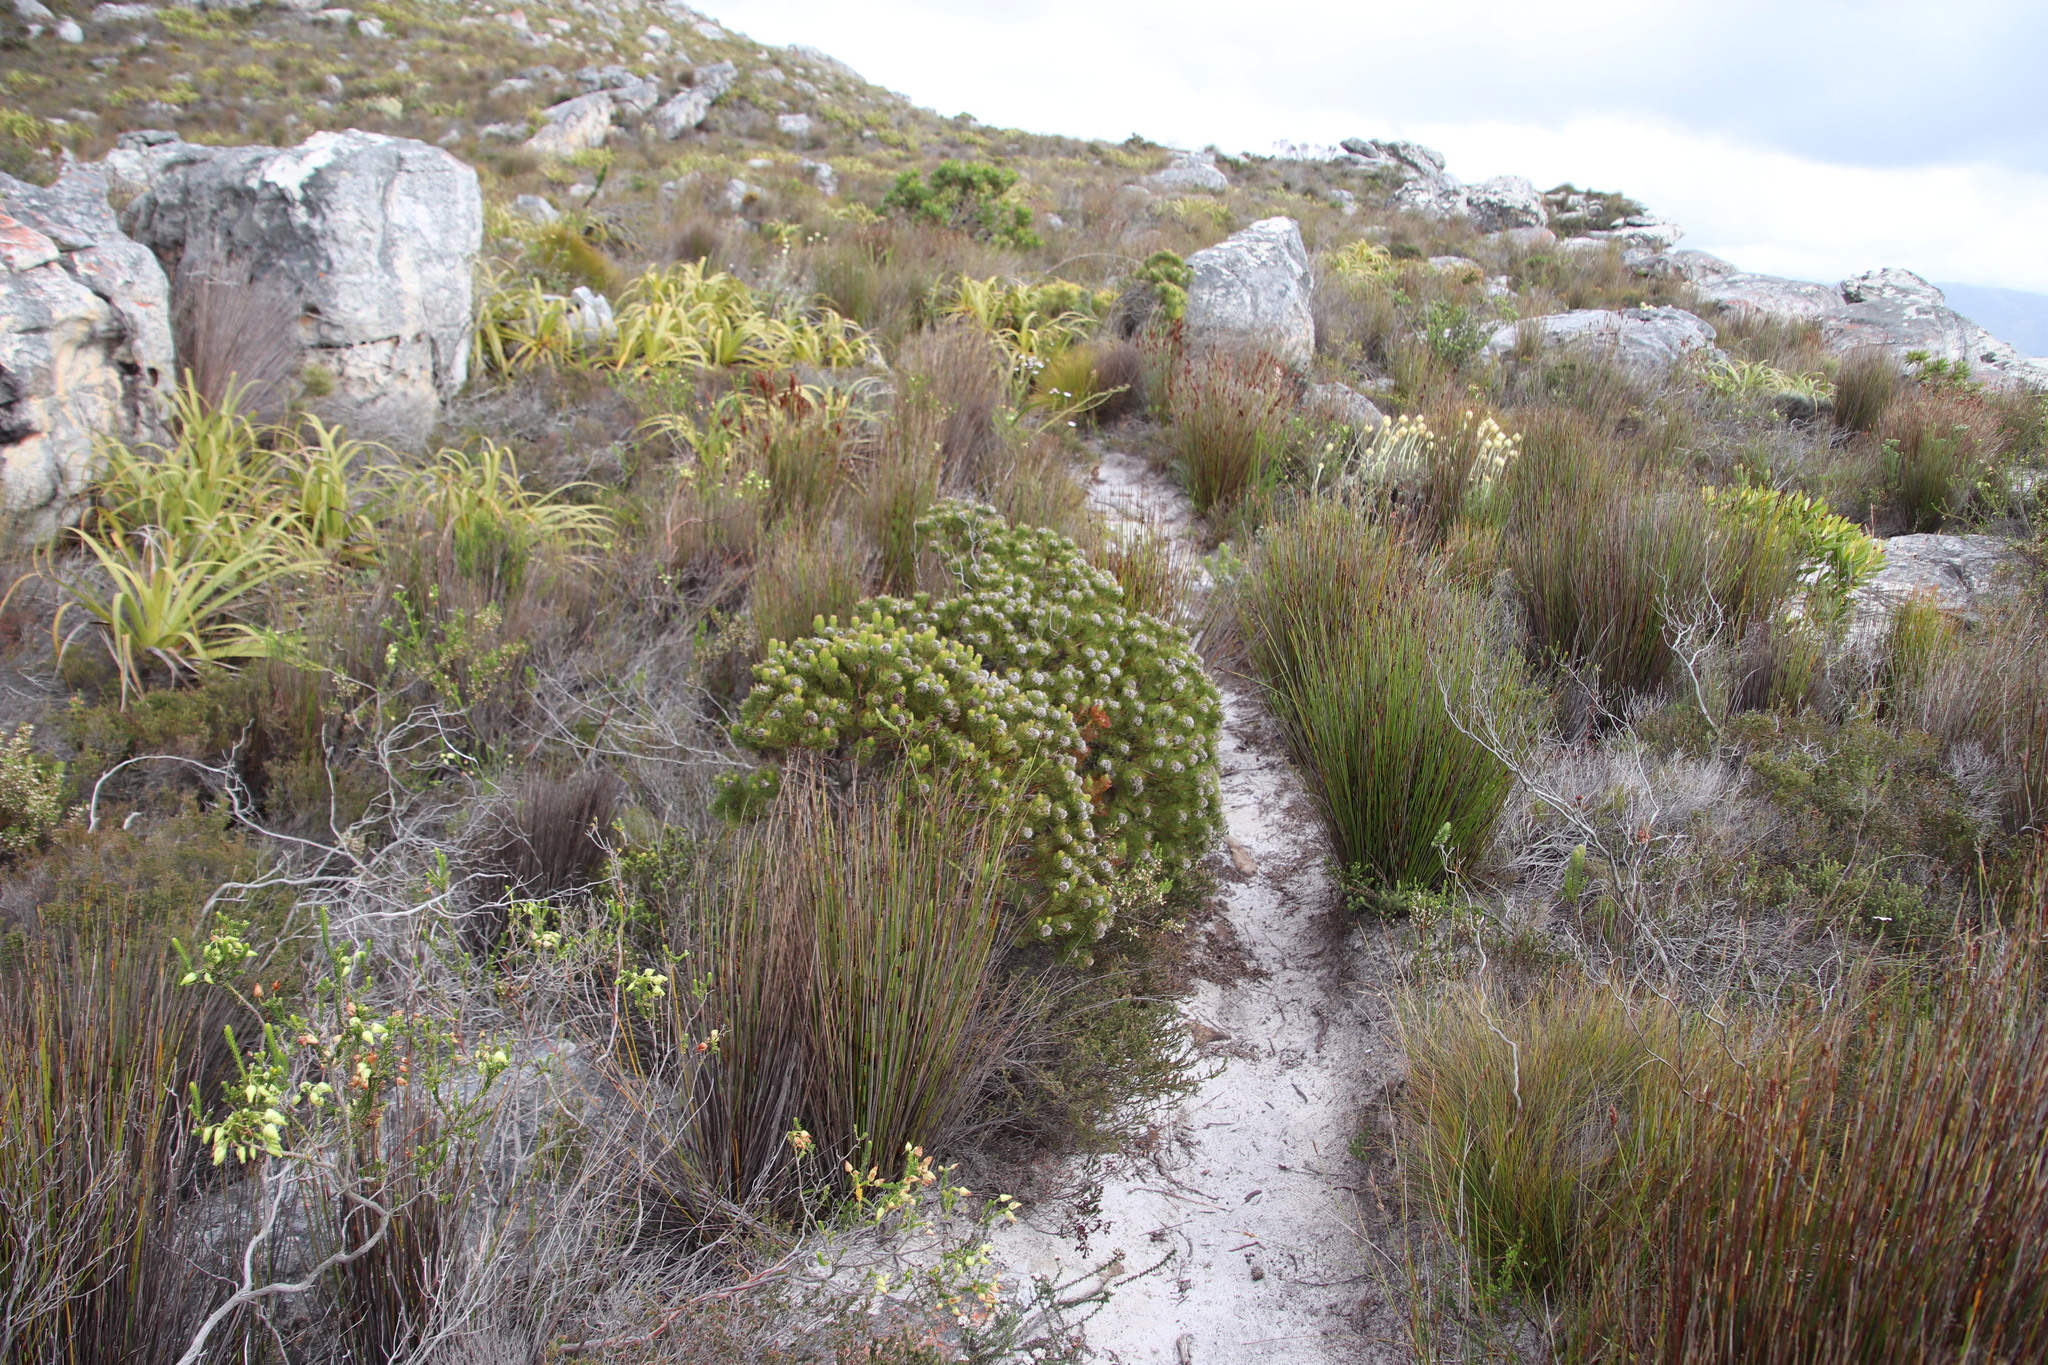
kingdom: Plantae
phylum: Tracheophyta
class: Magnoliopsida
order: Proteales
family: Proteaceae
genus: Serruria
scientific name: Serruria villosa
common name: Golden spiderhead
